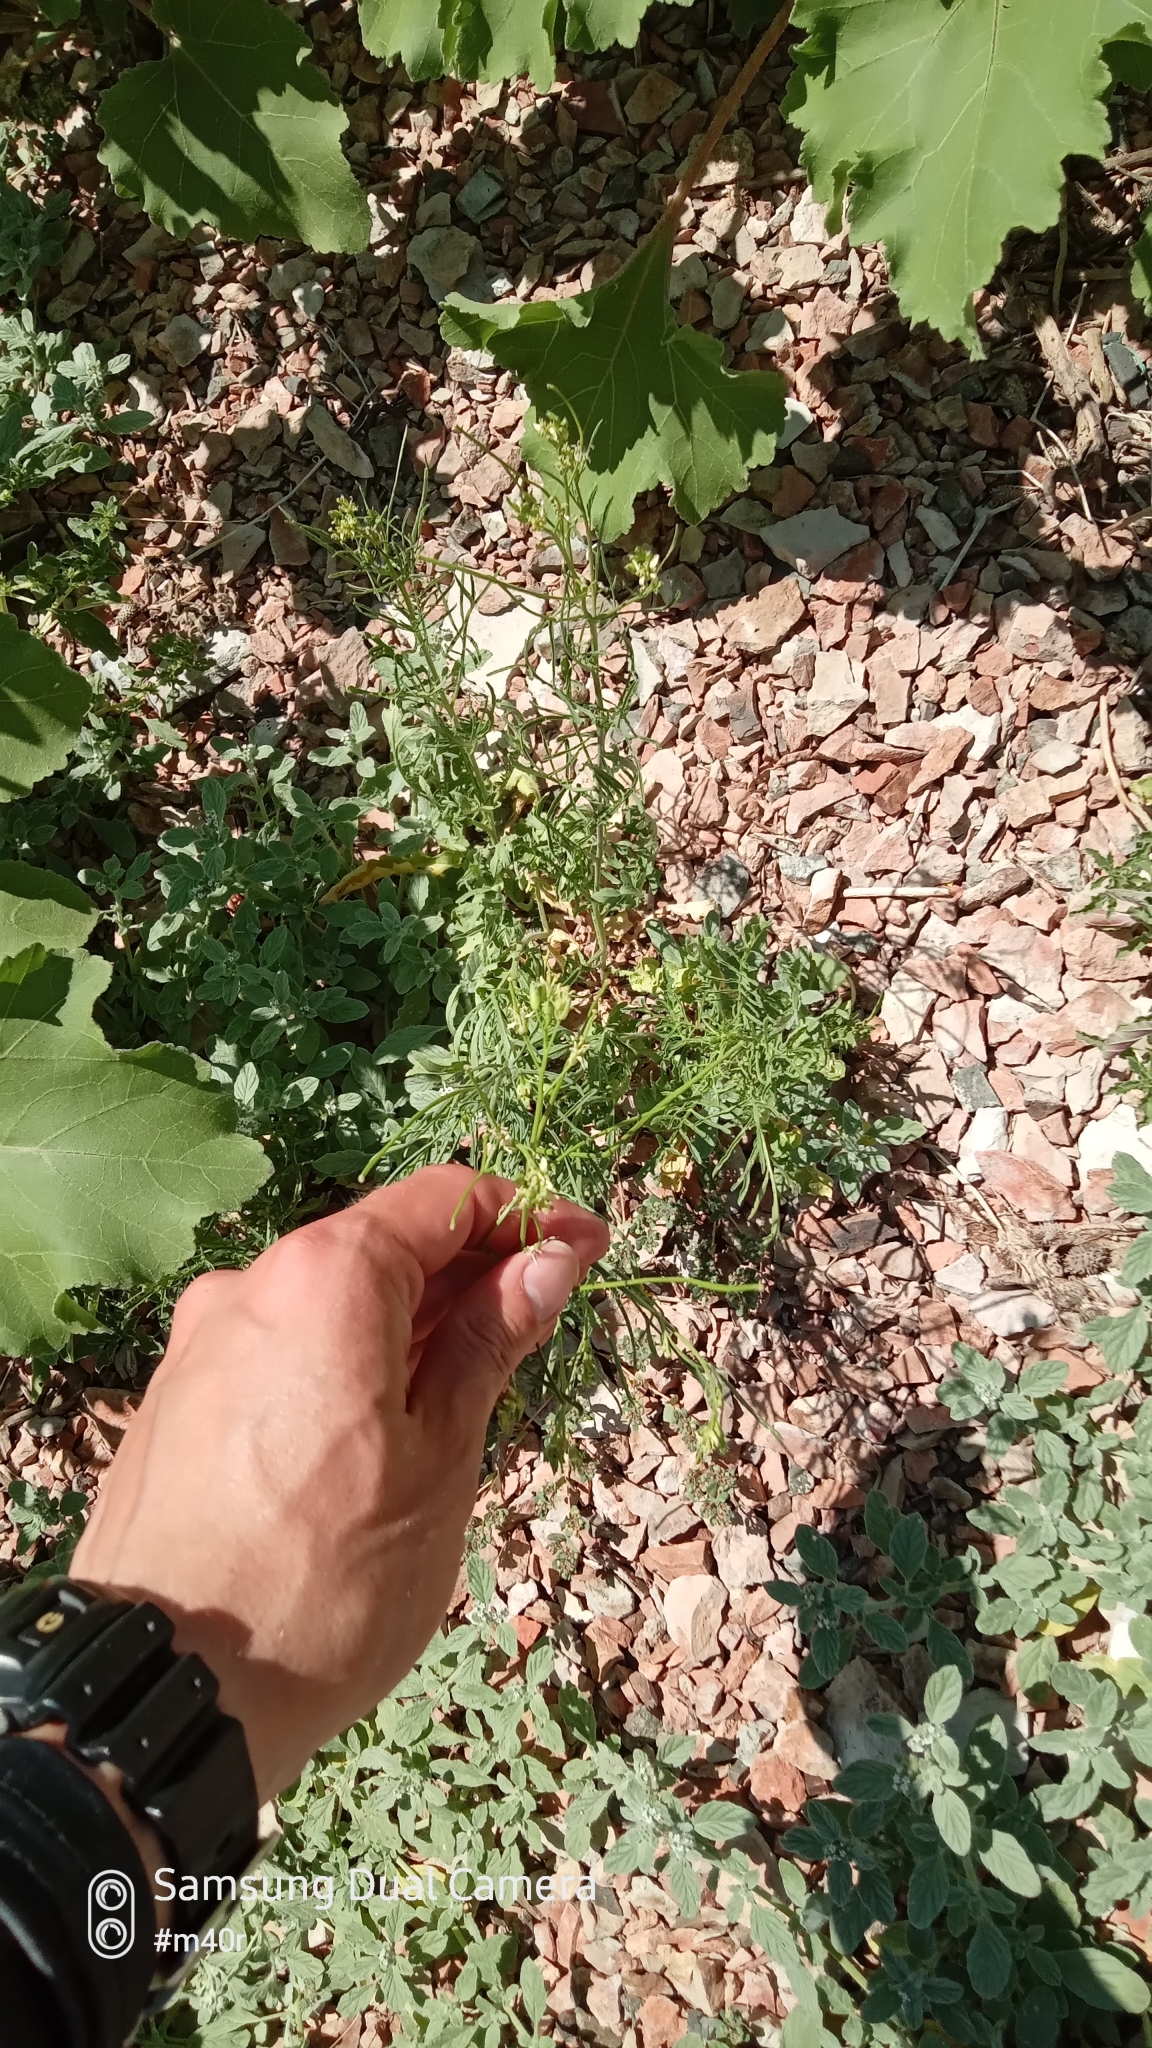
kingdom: Plantae
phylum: Tracheophyta
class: Magnoliopsida
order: Brassicales
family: Brassicaceae
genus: Sisymbrium
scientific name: Sisymbrium altissimum
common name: Tall rocket
